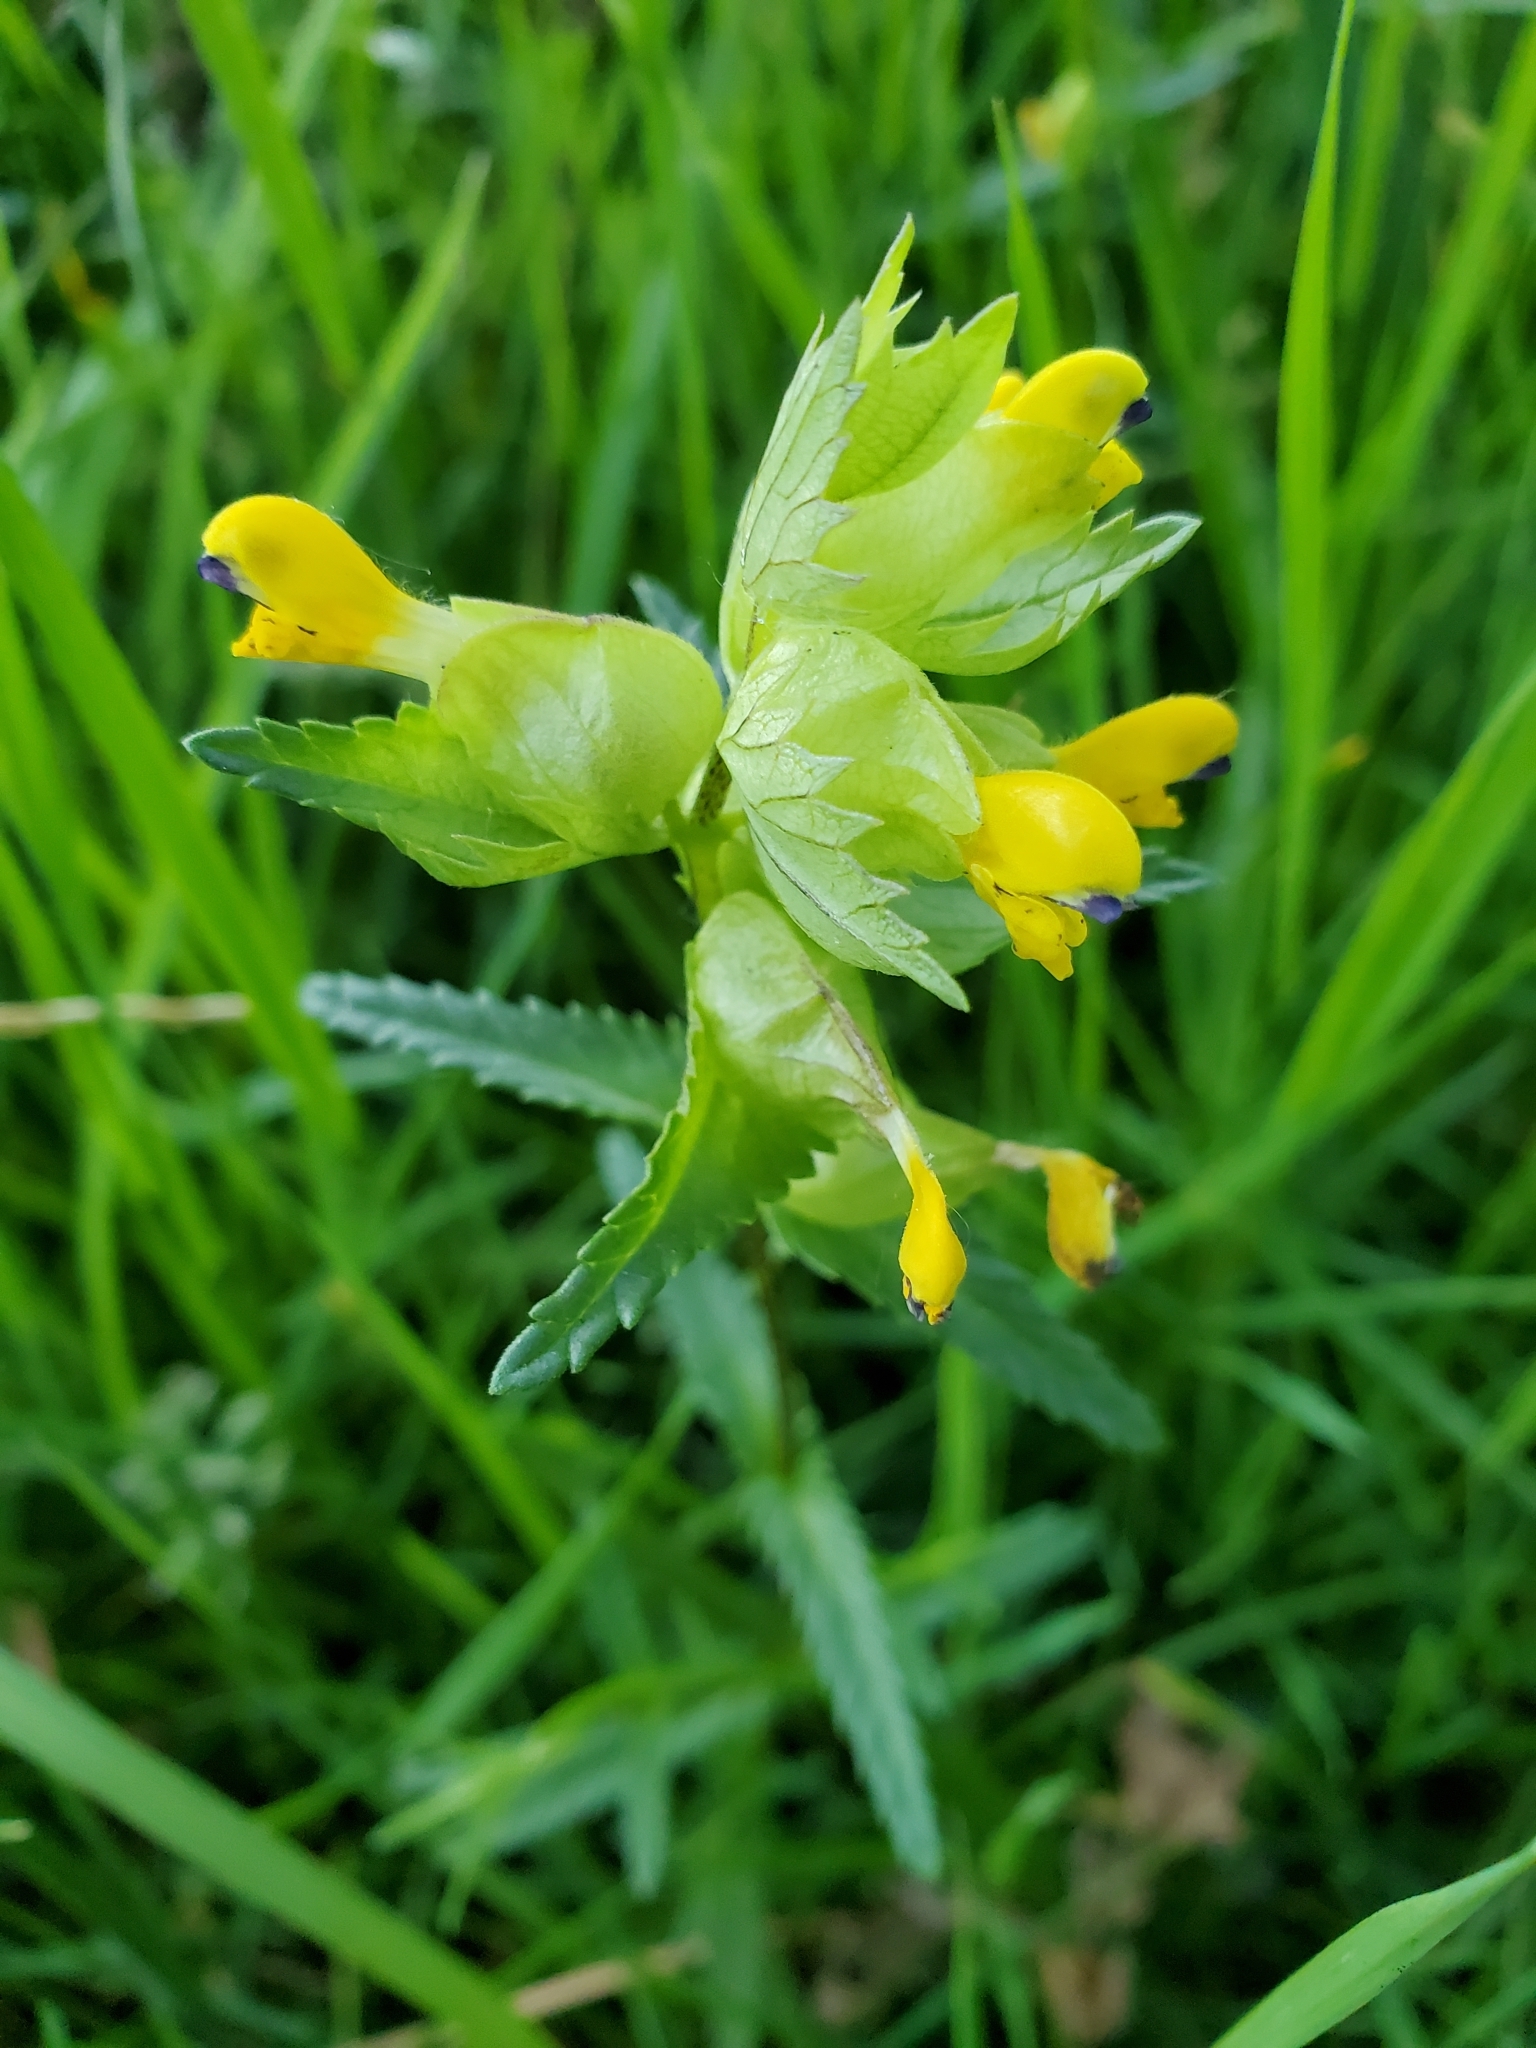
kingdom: Plantae
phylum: Tracheophyta
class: Magnoliopsida
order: Lamiales
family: Orobanchaceae
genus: Rhinanthus
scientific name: Rhinanthus minor
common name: Yellow-rattle
